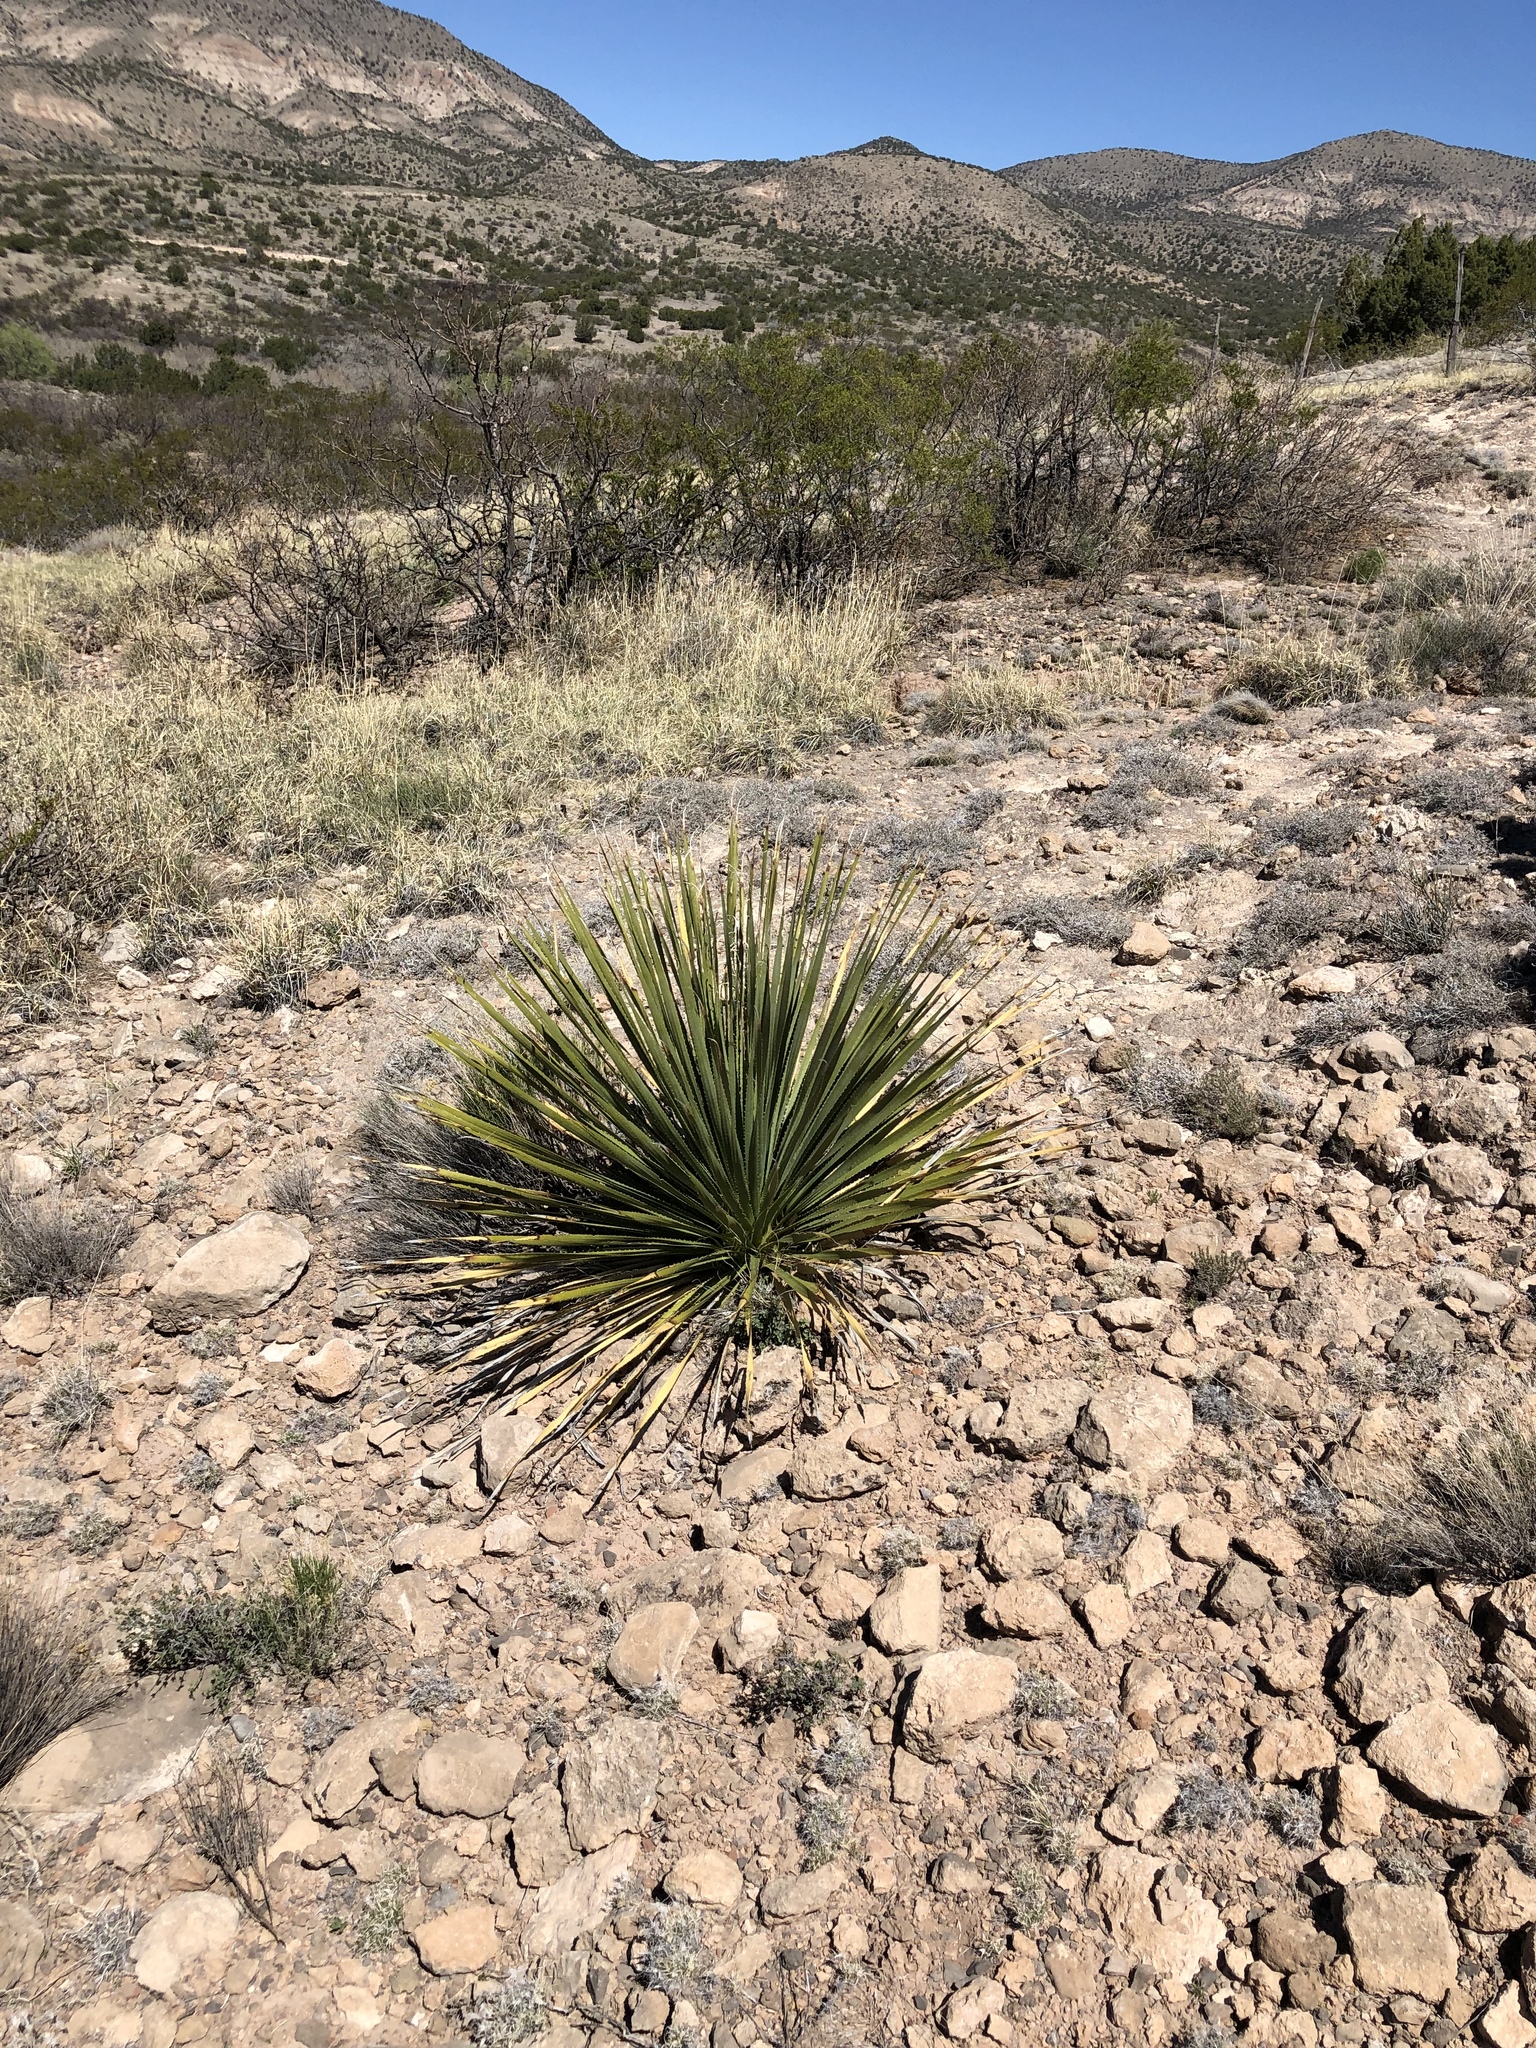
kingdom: Plantae
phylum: Tracheophyta
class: Liliopsida
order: Asparagales
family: Asparagaceae
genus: Dasylirion
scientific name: Dasylirion wheeleri
